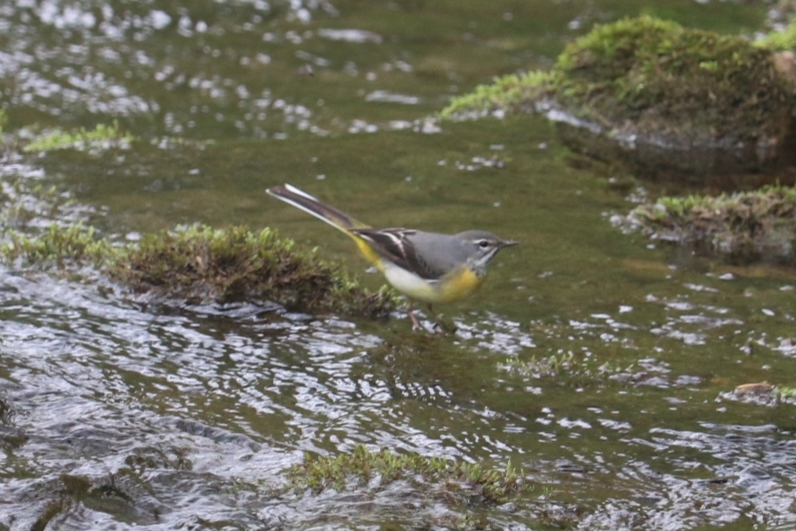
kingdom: Animalia
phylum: Chordata
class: Aves
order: Passeriformes
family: Motacillidae
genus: Motacilla
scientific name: Motacilla cinerea
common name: Grey wagtail
